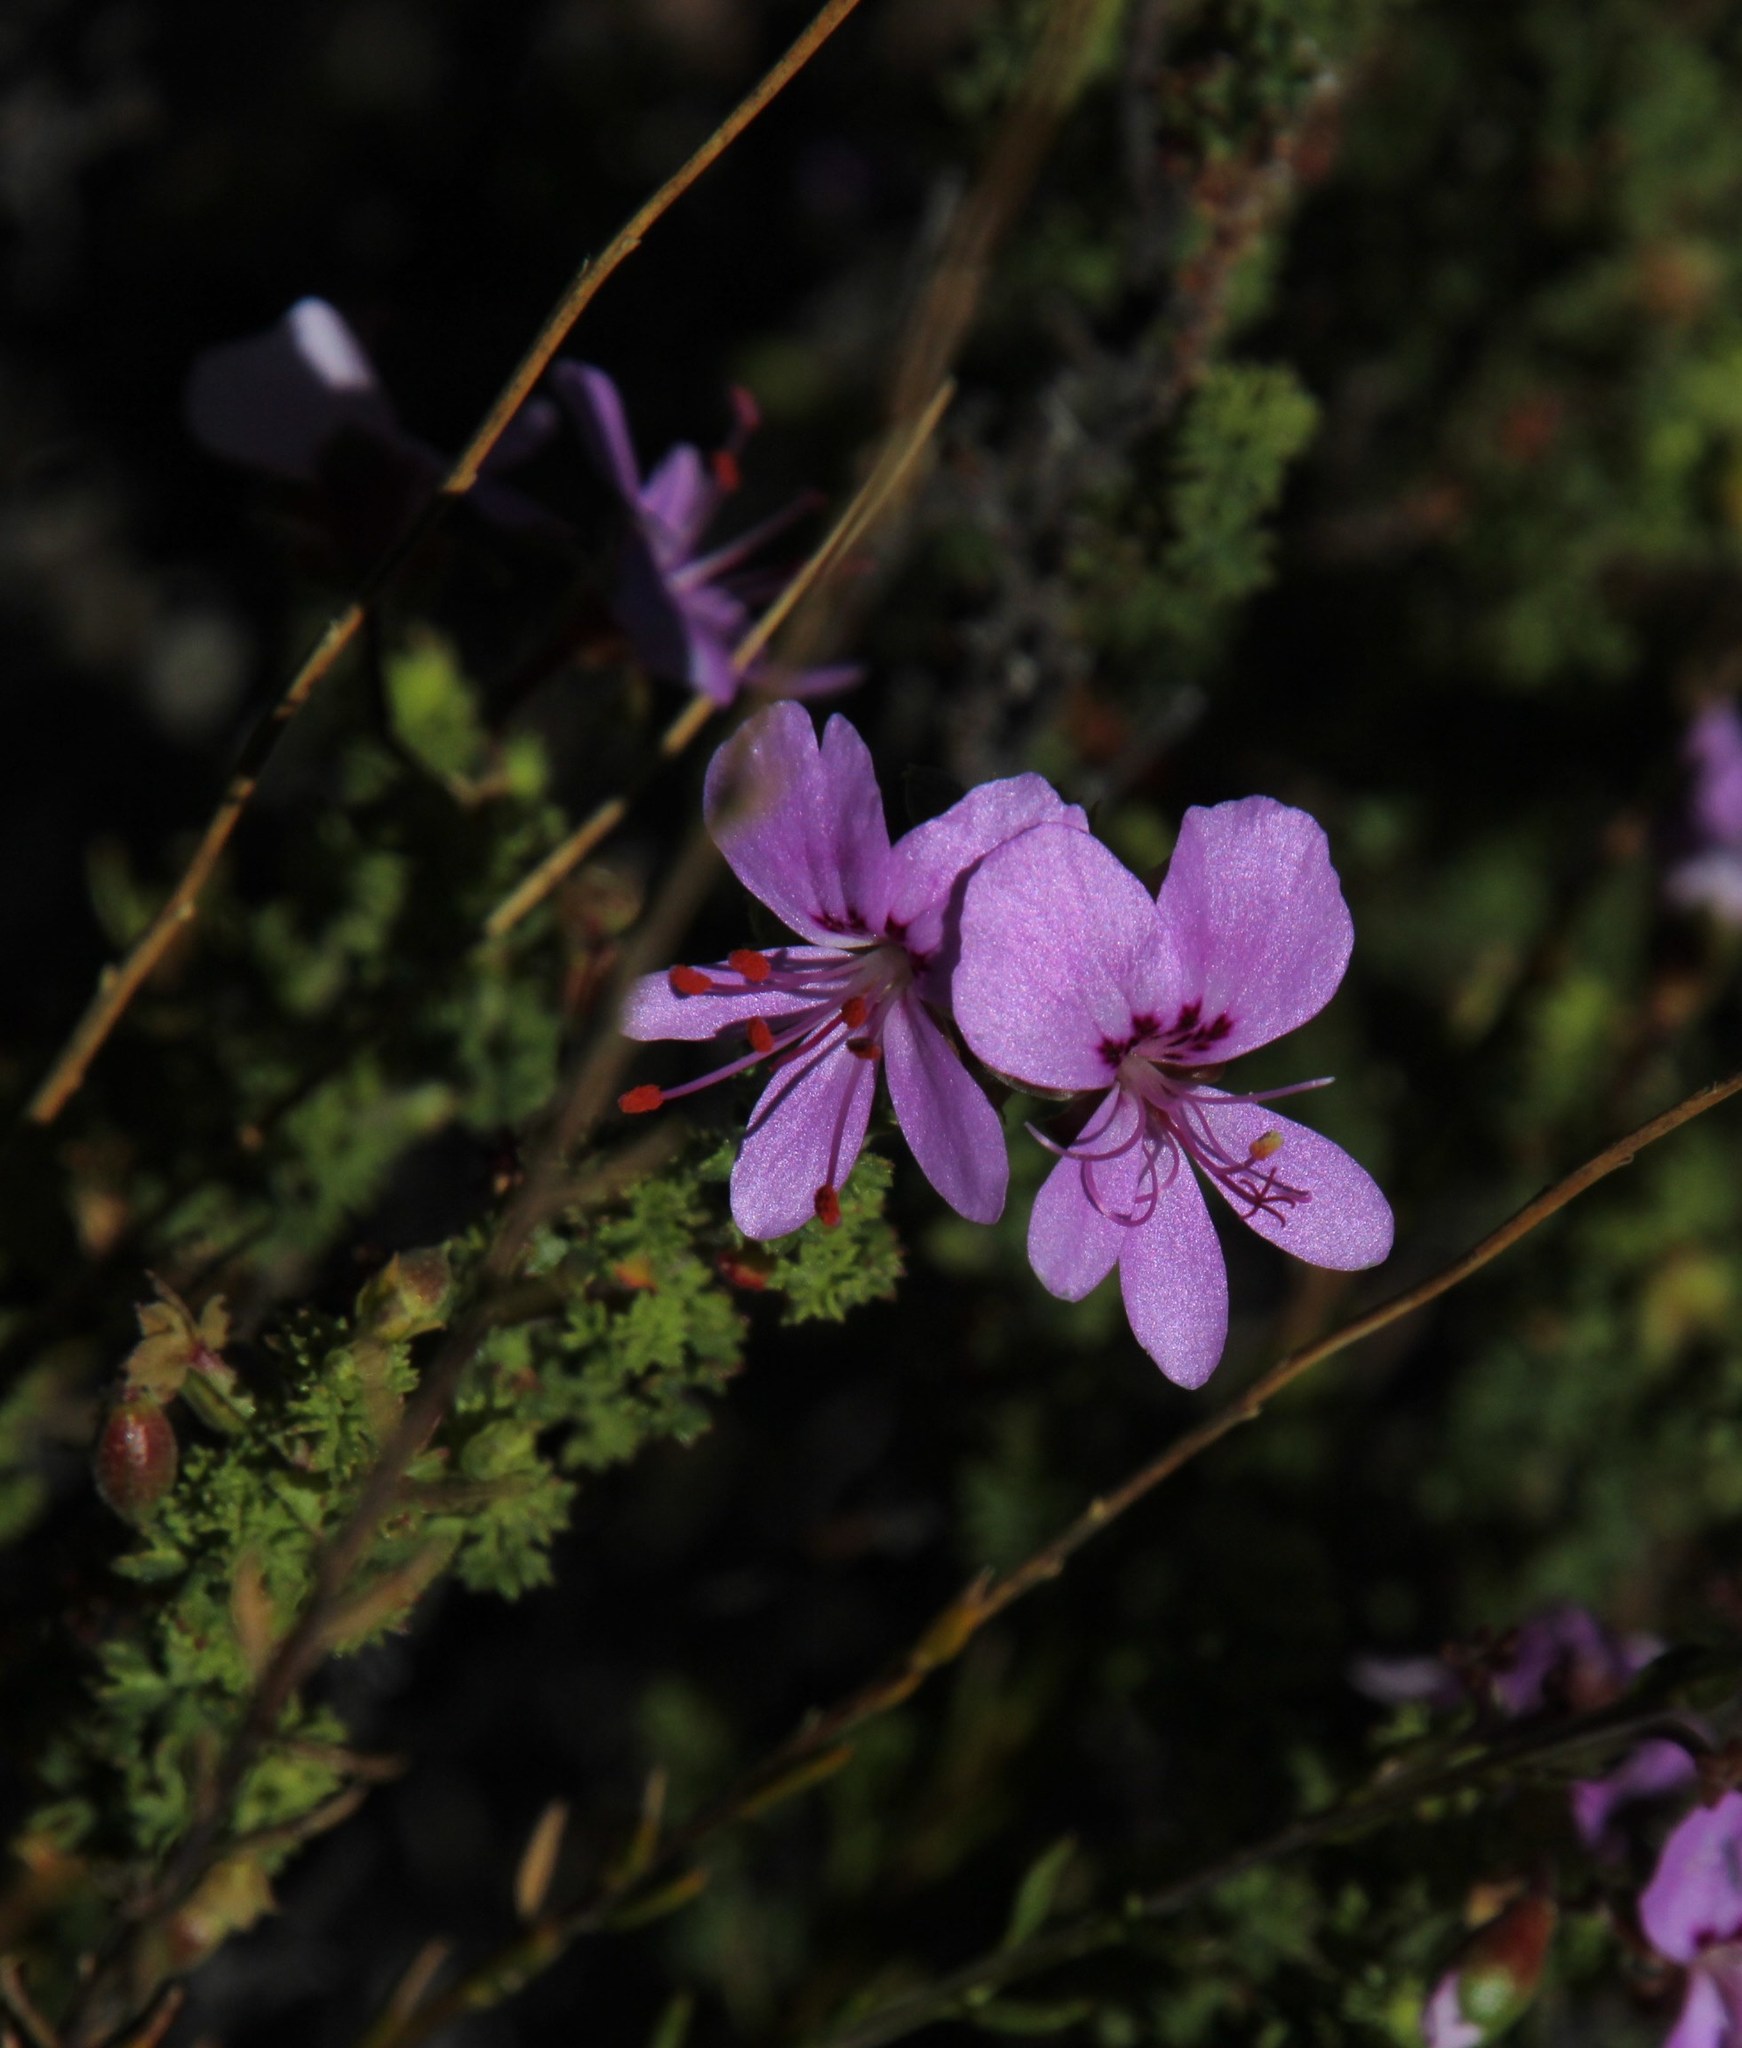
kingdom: Plantae
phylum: Tracheophyta
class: Magnoliopsida
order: Geraniales
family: Geraniaceae
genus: Pelargonium
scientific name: Pelargonium englerianum
